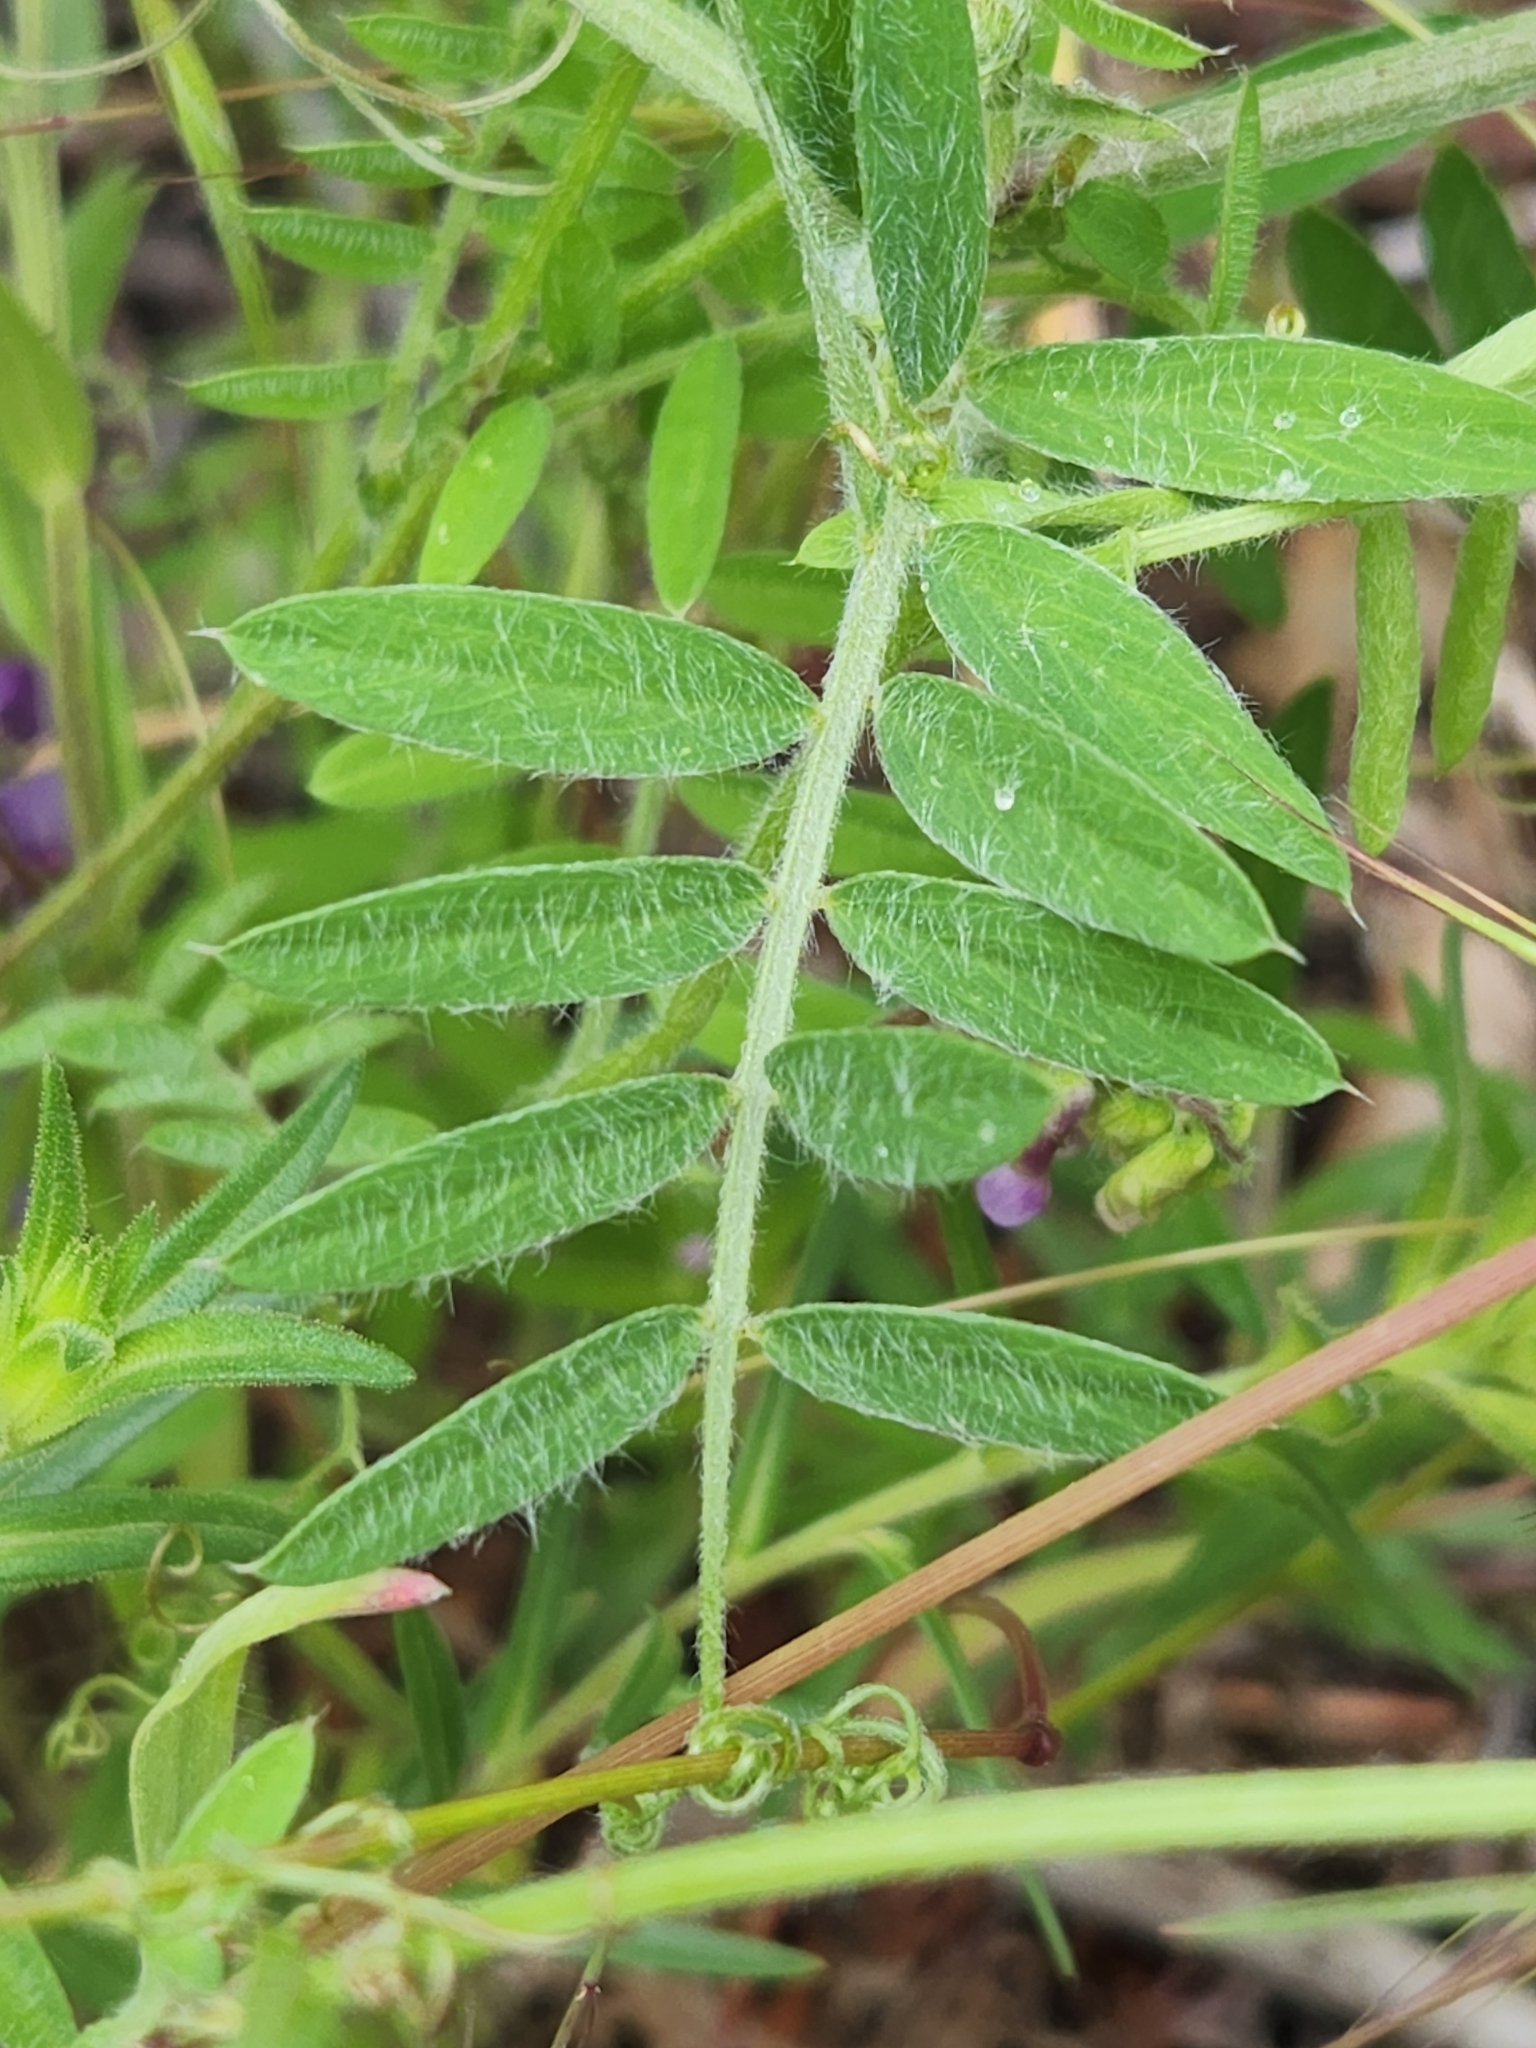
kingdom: Plantae
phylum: Tracheophyta
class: Magnoliopsida
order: Fabales
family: Fabaceae
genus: Vicia
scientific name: Vicia villosa
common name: Fodder vetch
